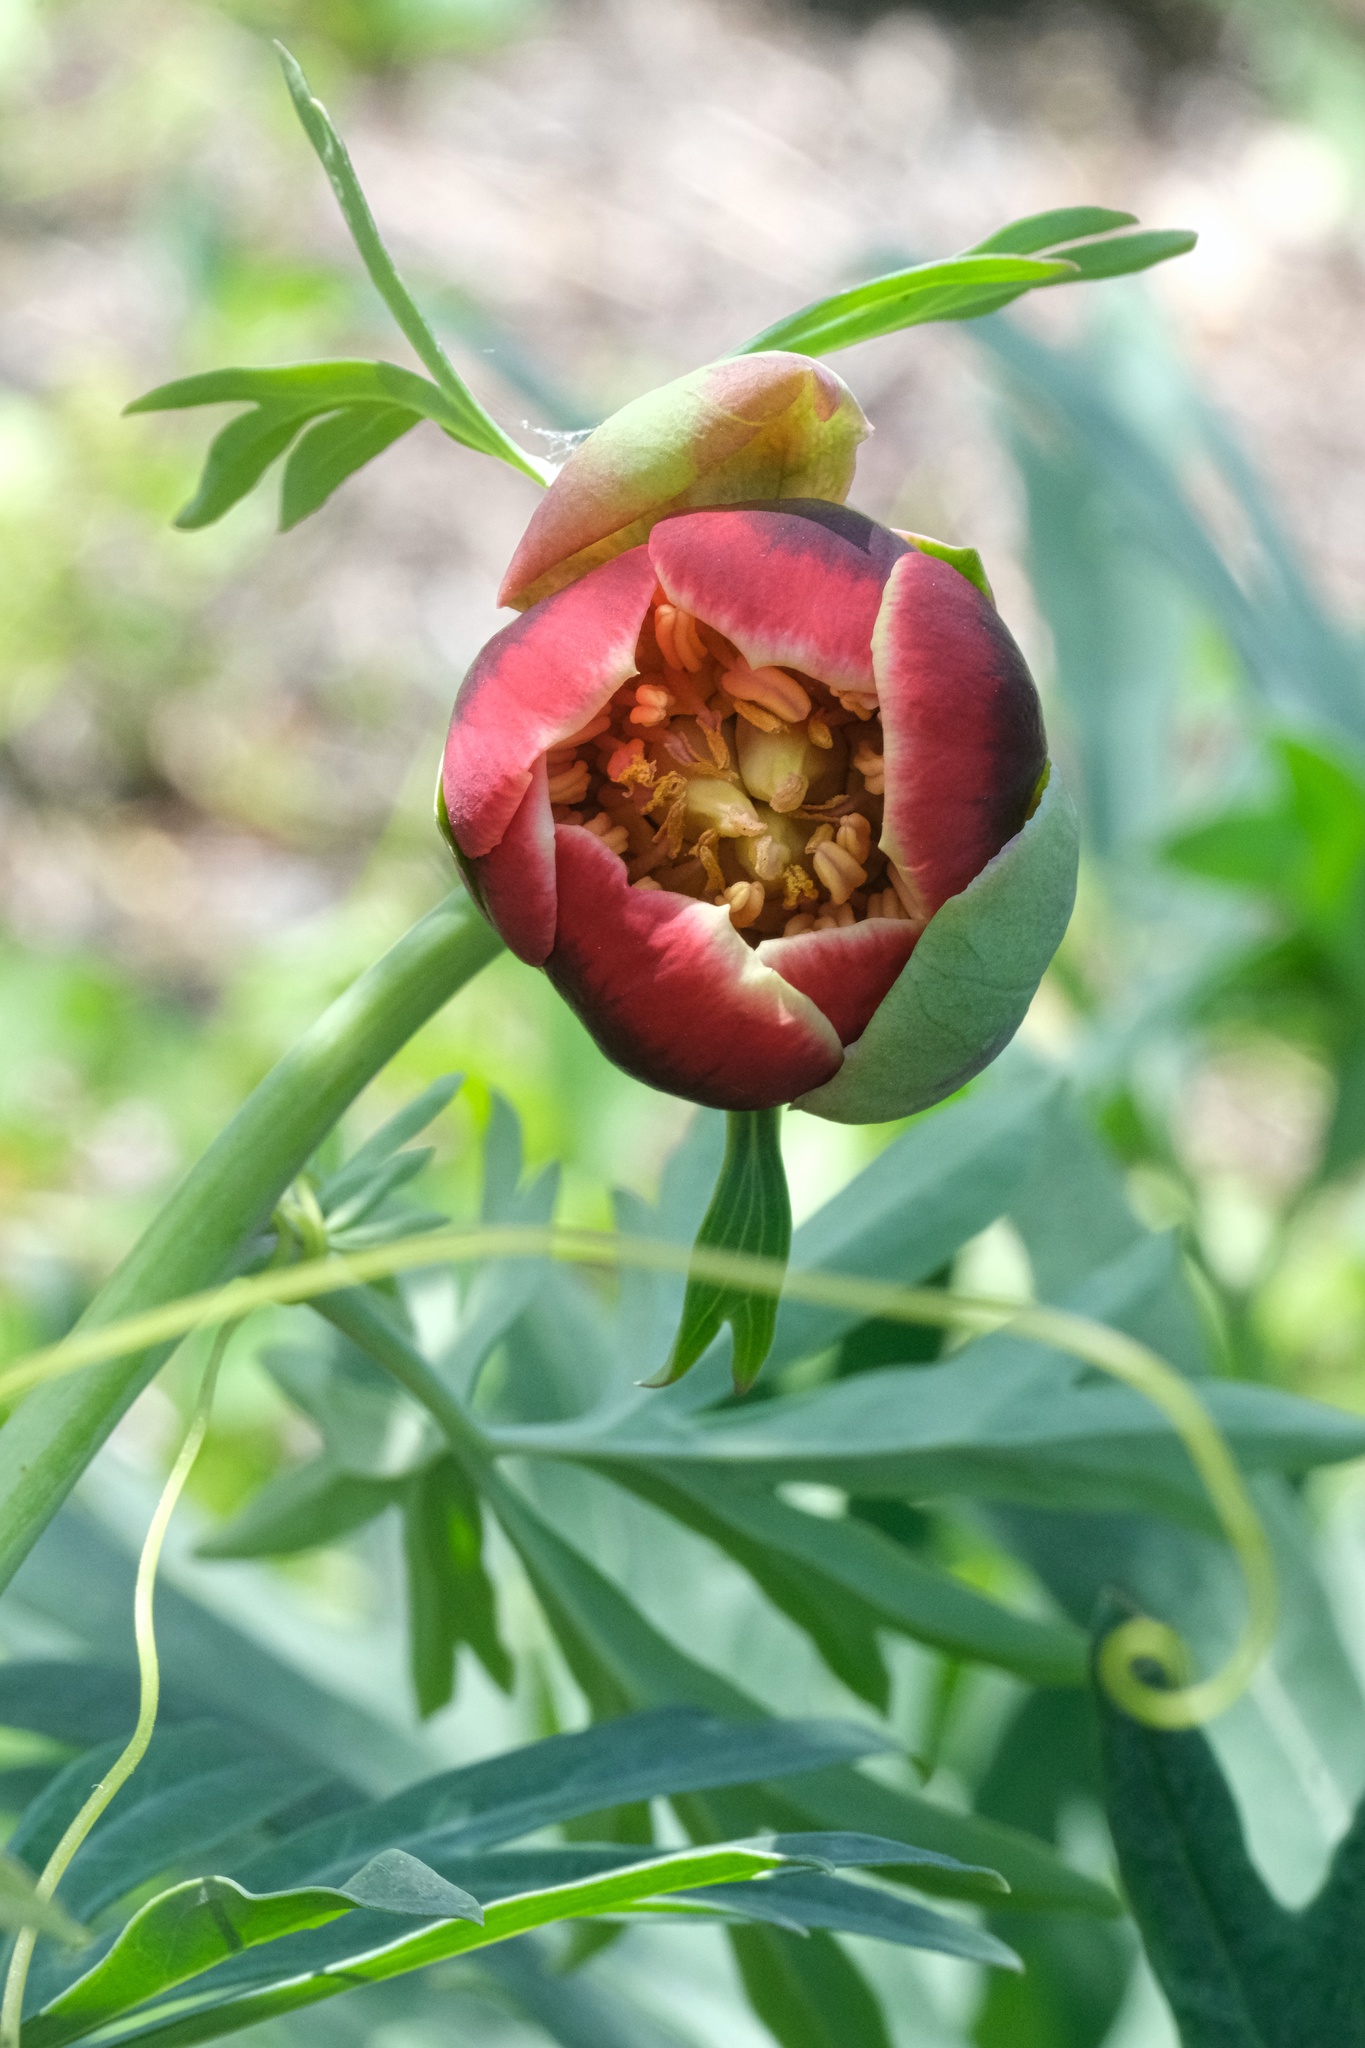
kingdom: Plantae
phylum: Tracheophyta
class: Magnoliopsida
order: Saxifragales
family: Paeoniaceae
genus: Paeonia
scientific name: Paeonia californica
